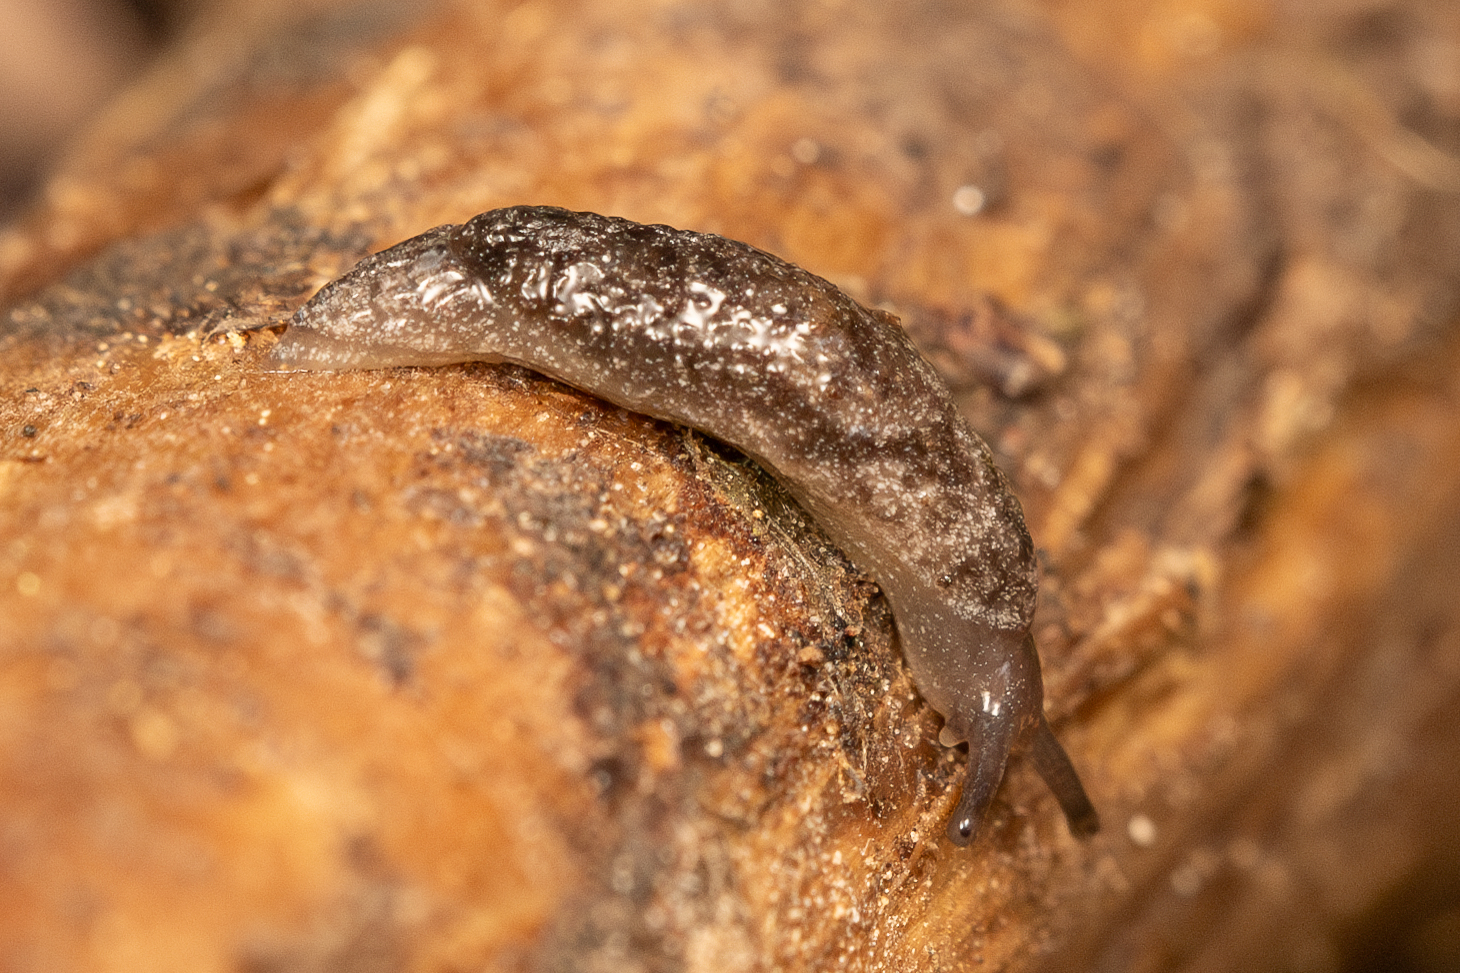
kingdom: Animalia
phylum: Mollusca
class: Gastropoda
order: Stylommatophora
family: Arionidae
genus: Securicauda
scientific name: Securicauda hermani
